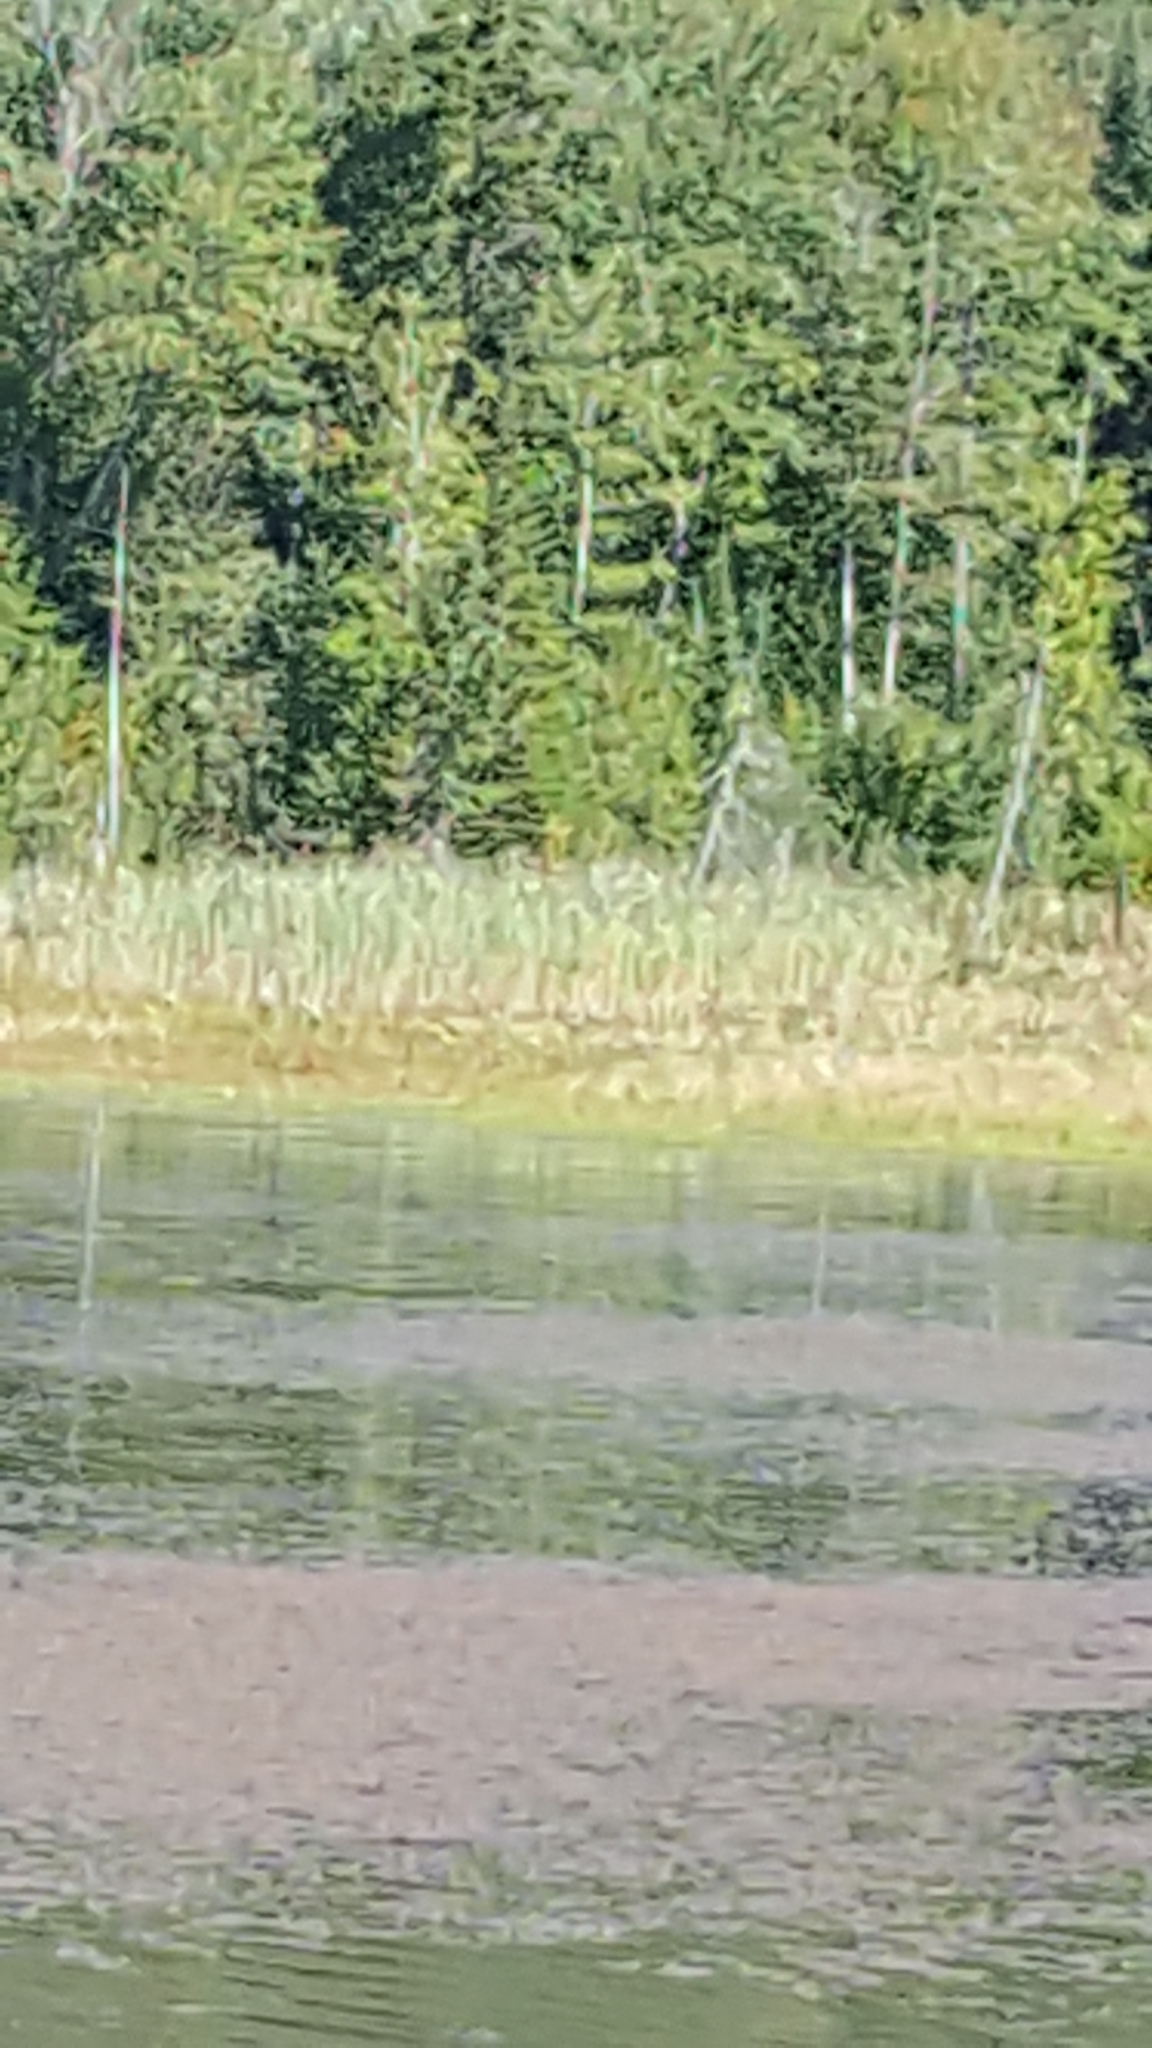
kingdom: Plantae
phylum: Tracheophyta
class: Liliopsida
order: Poales
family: Poaceae
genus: Phragmites
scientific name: Phragmites australis
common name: Common reed
